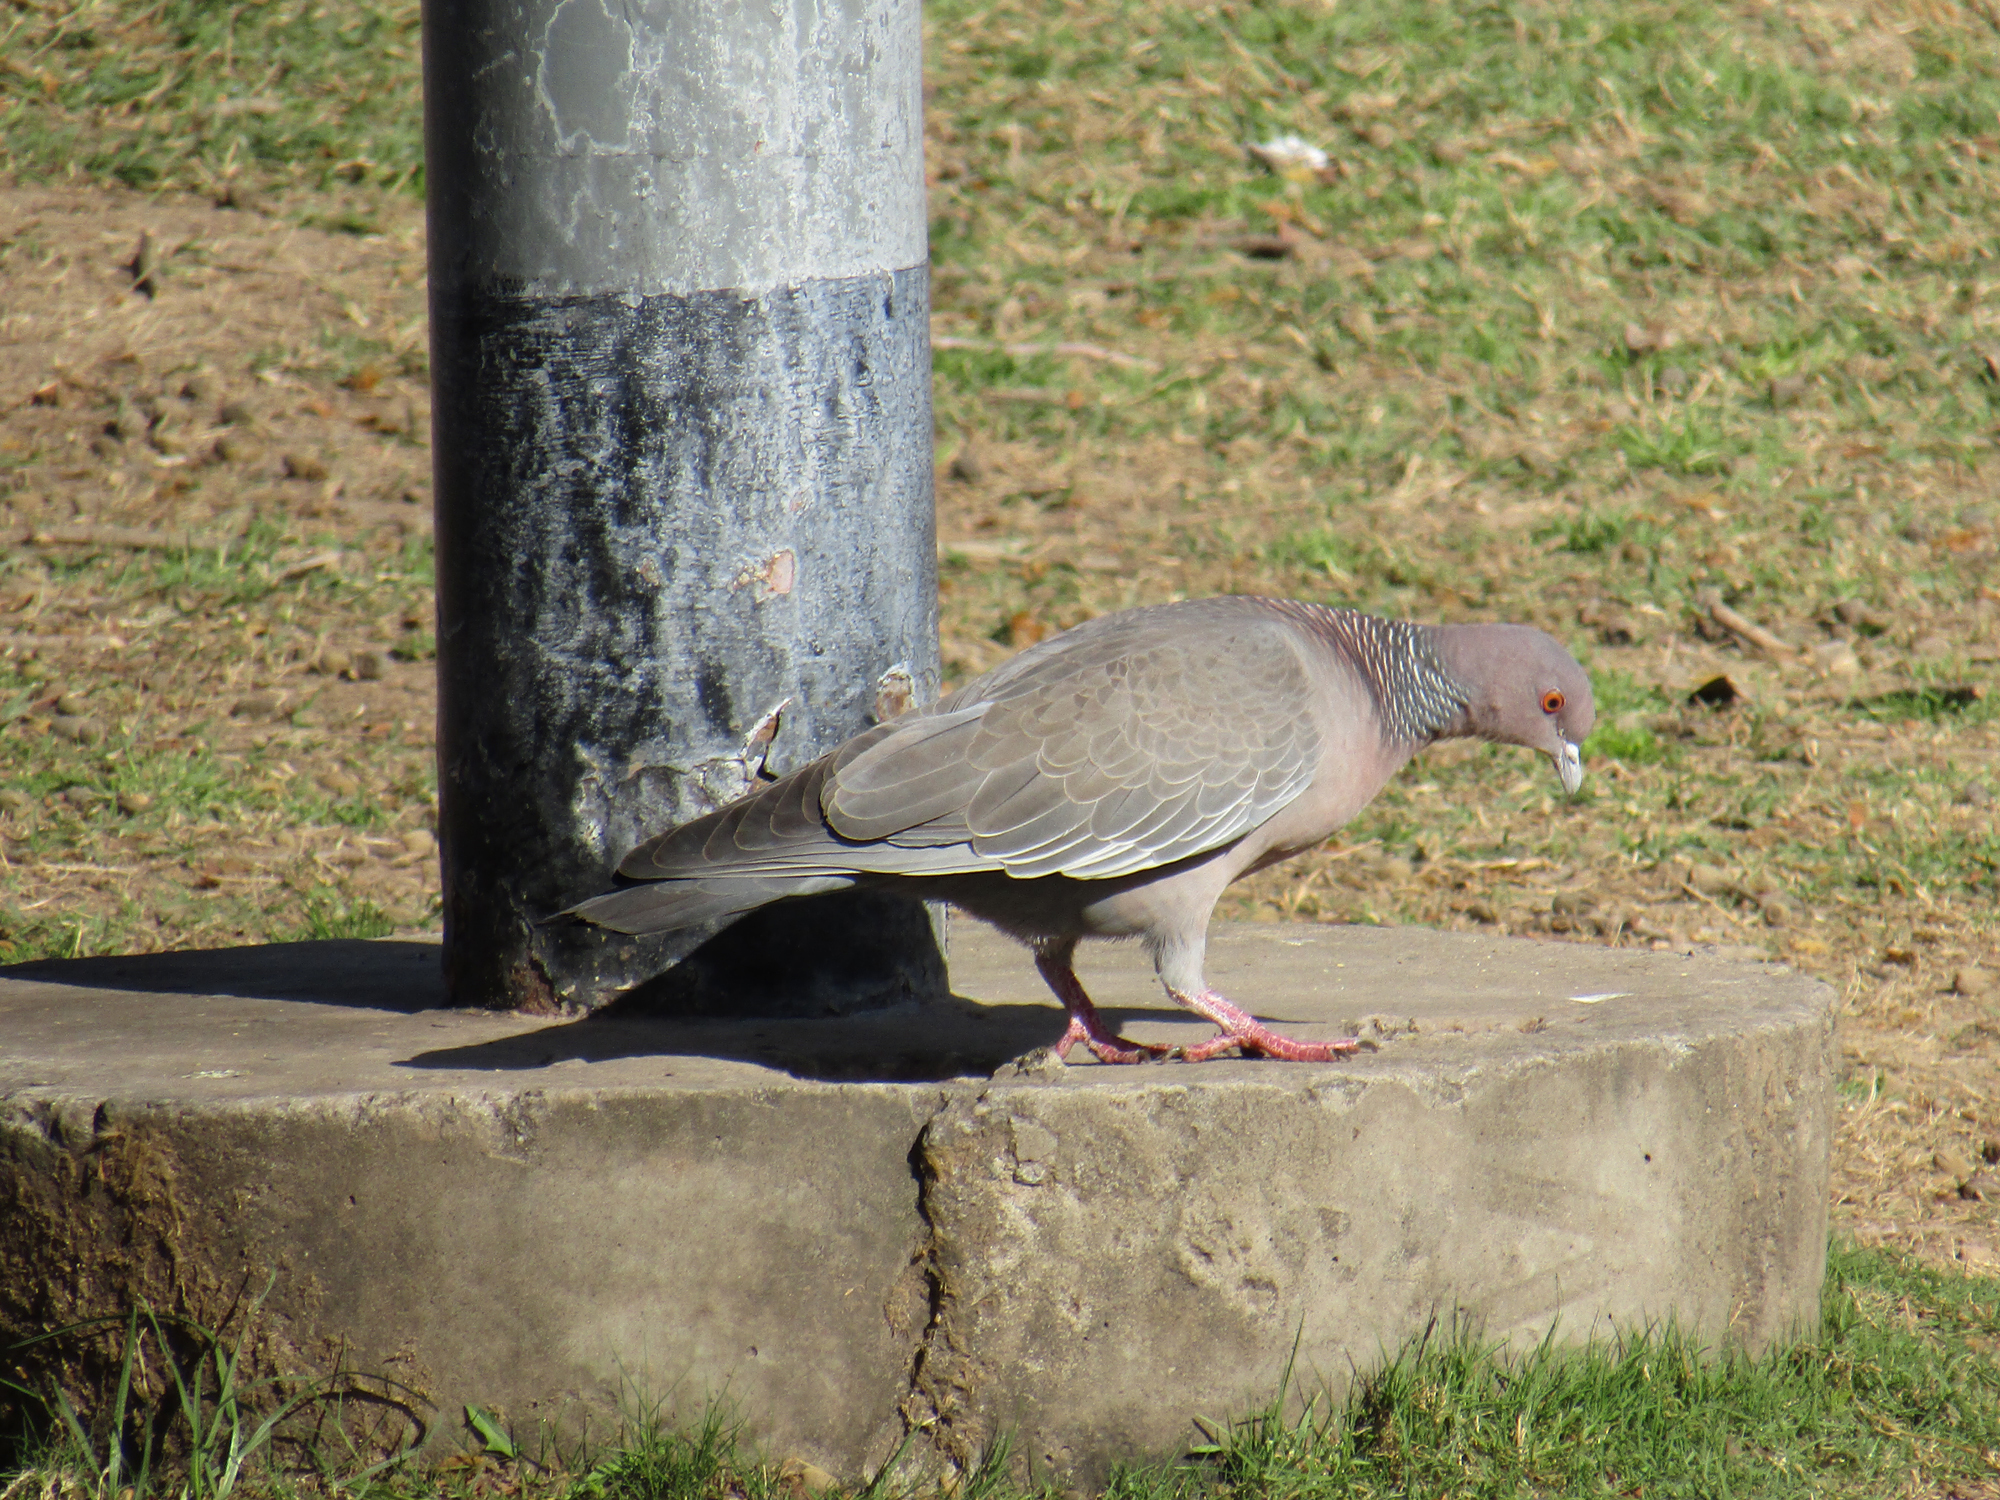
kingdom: Animalia
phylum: Chordata
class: Aves
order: Columbiformes
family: Columbidae
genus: Patagioenas
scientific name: Patagioenas picazuro
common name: Picazuro pigeon
